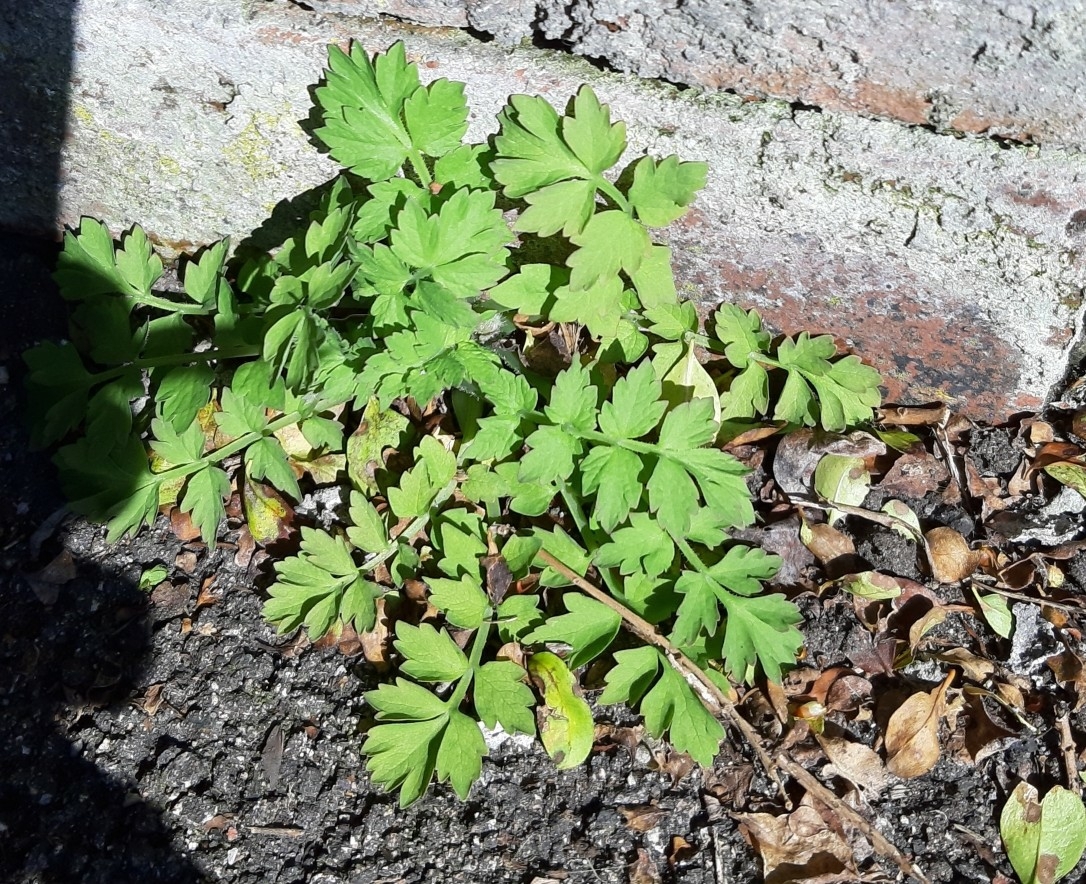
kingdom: Plantae
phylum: Tracheophyta
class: Magnoliopsida
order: Ranunculales
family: Papaveraceae
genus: Papaver
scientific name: Papaver cambricum
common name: Poppy
